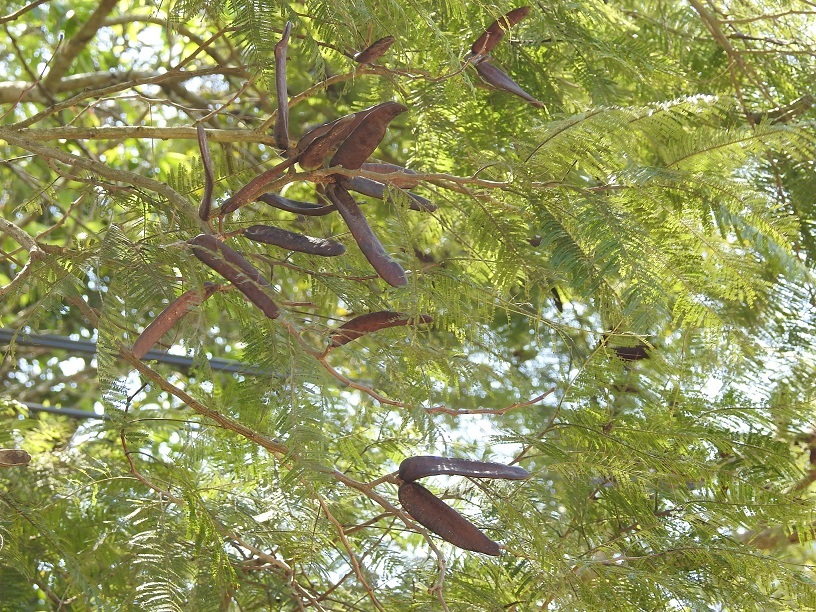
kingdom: Plantae
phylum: Tracheophyta
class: Magnoliopsida
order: Fabales
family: Fabaceae
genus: Vachellia
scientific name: Vachellia pennatula
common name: Fern-leaf acacia
